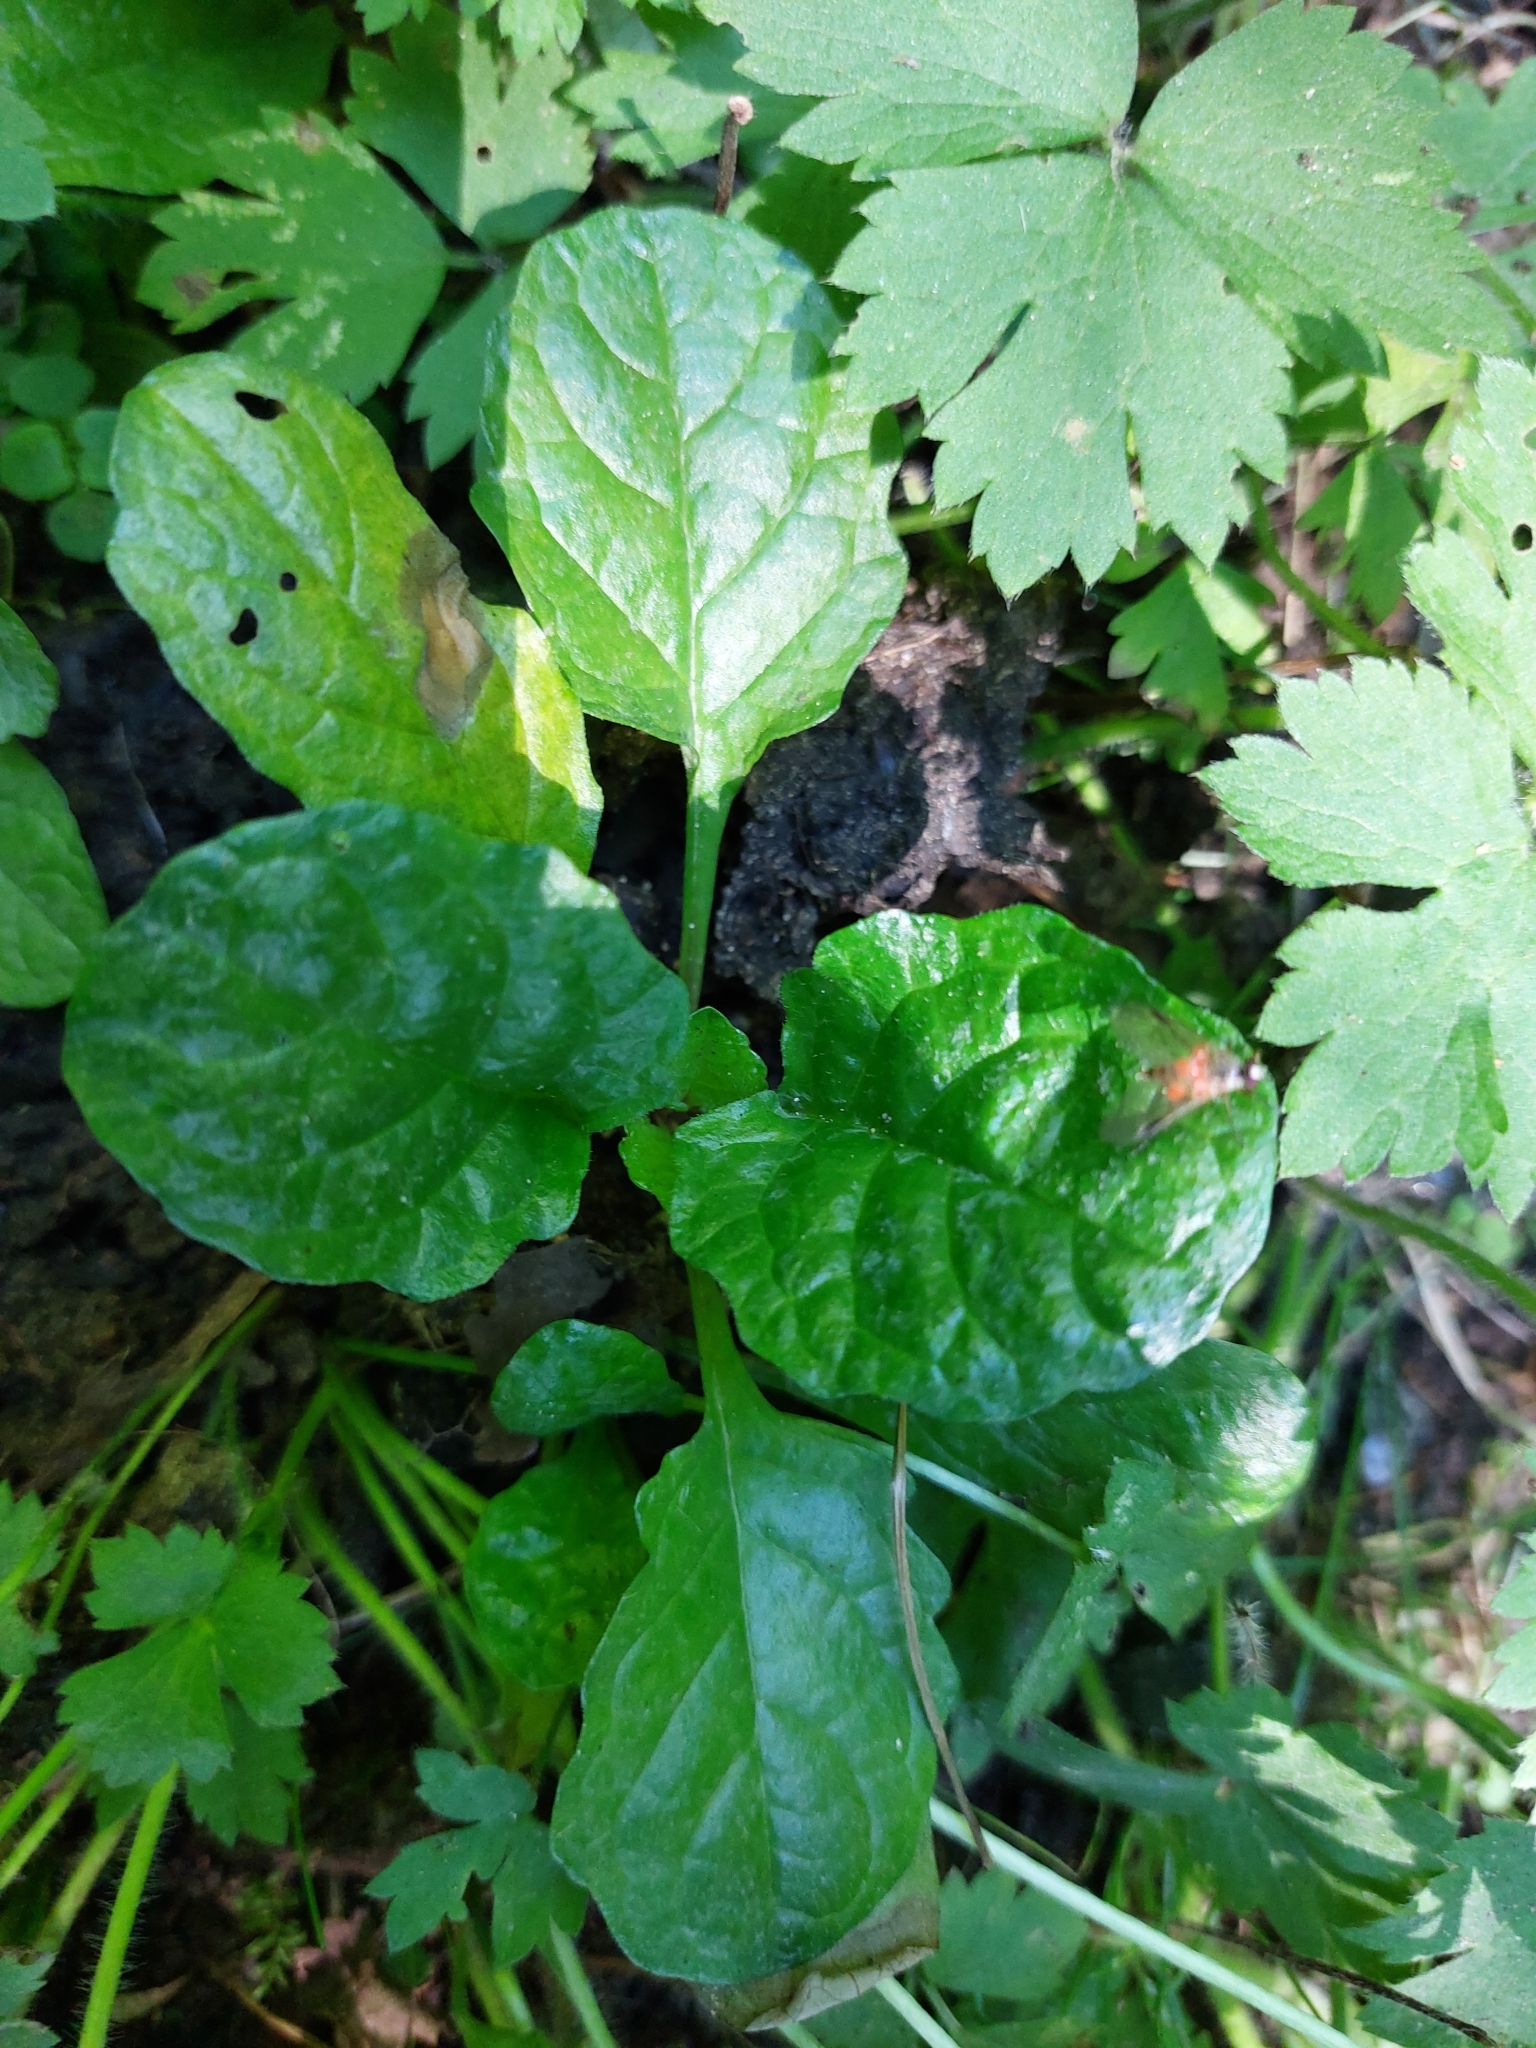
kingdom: Plantae
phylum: Tracheophyta
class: Magnoliopsida
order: Lamiales
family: Lamiaceae
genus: Ajuga
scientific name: Ajuga reptans
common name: Bugle
